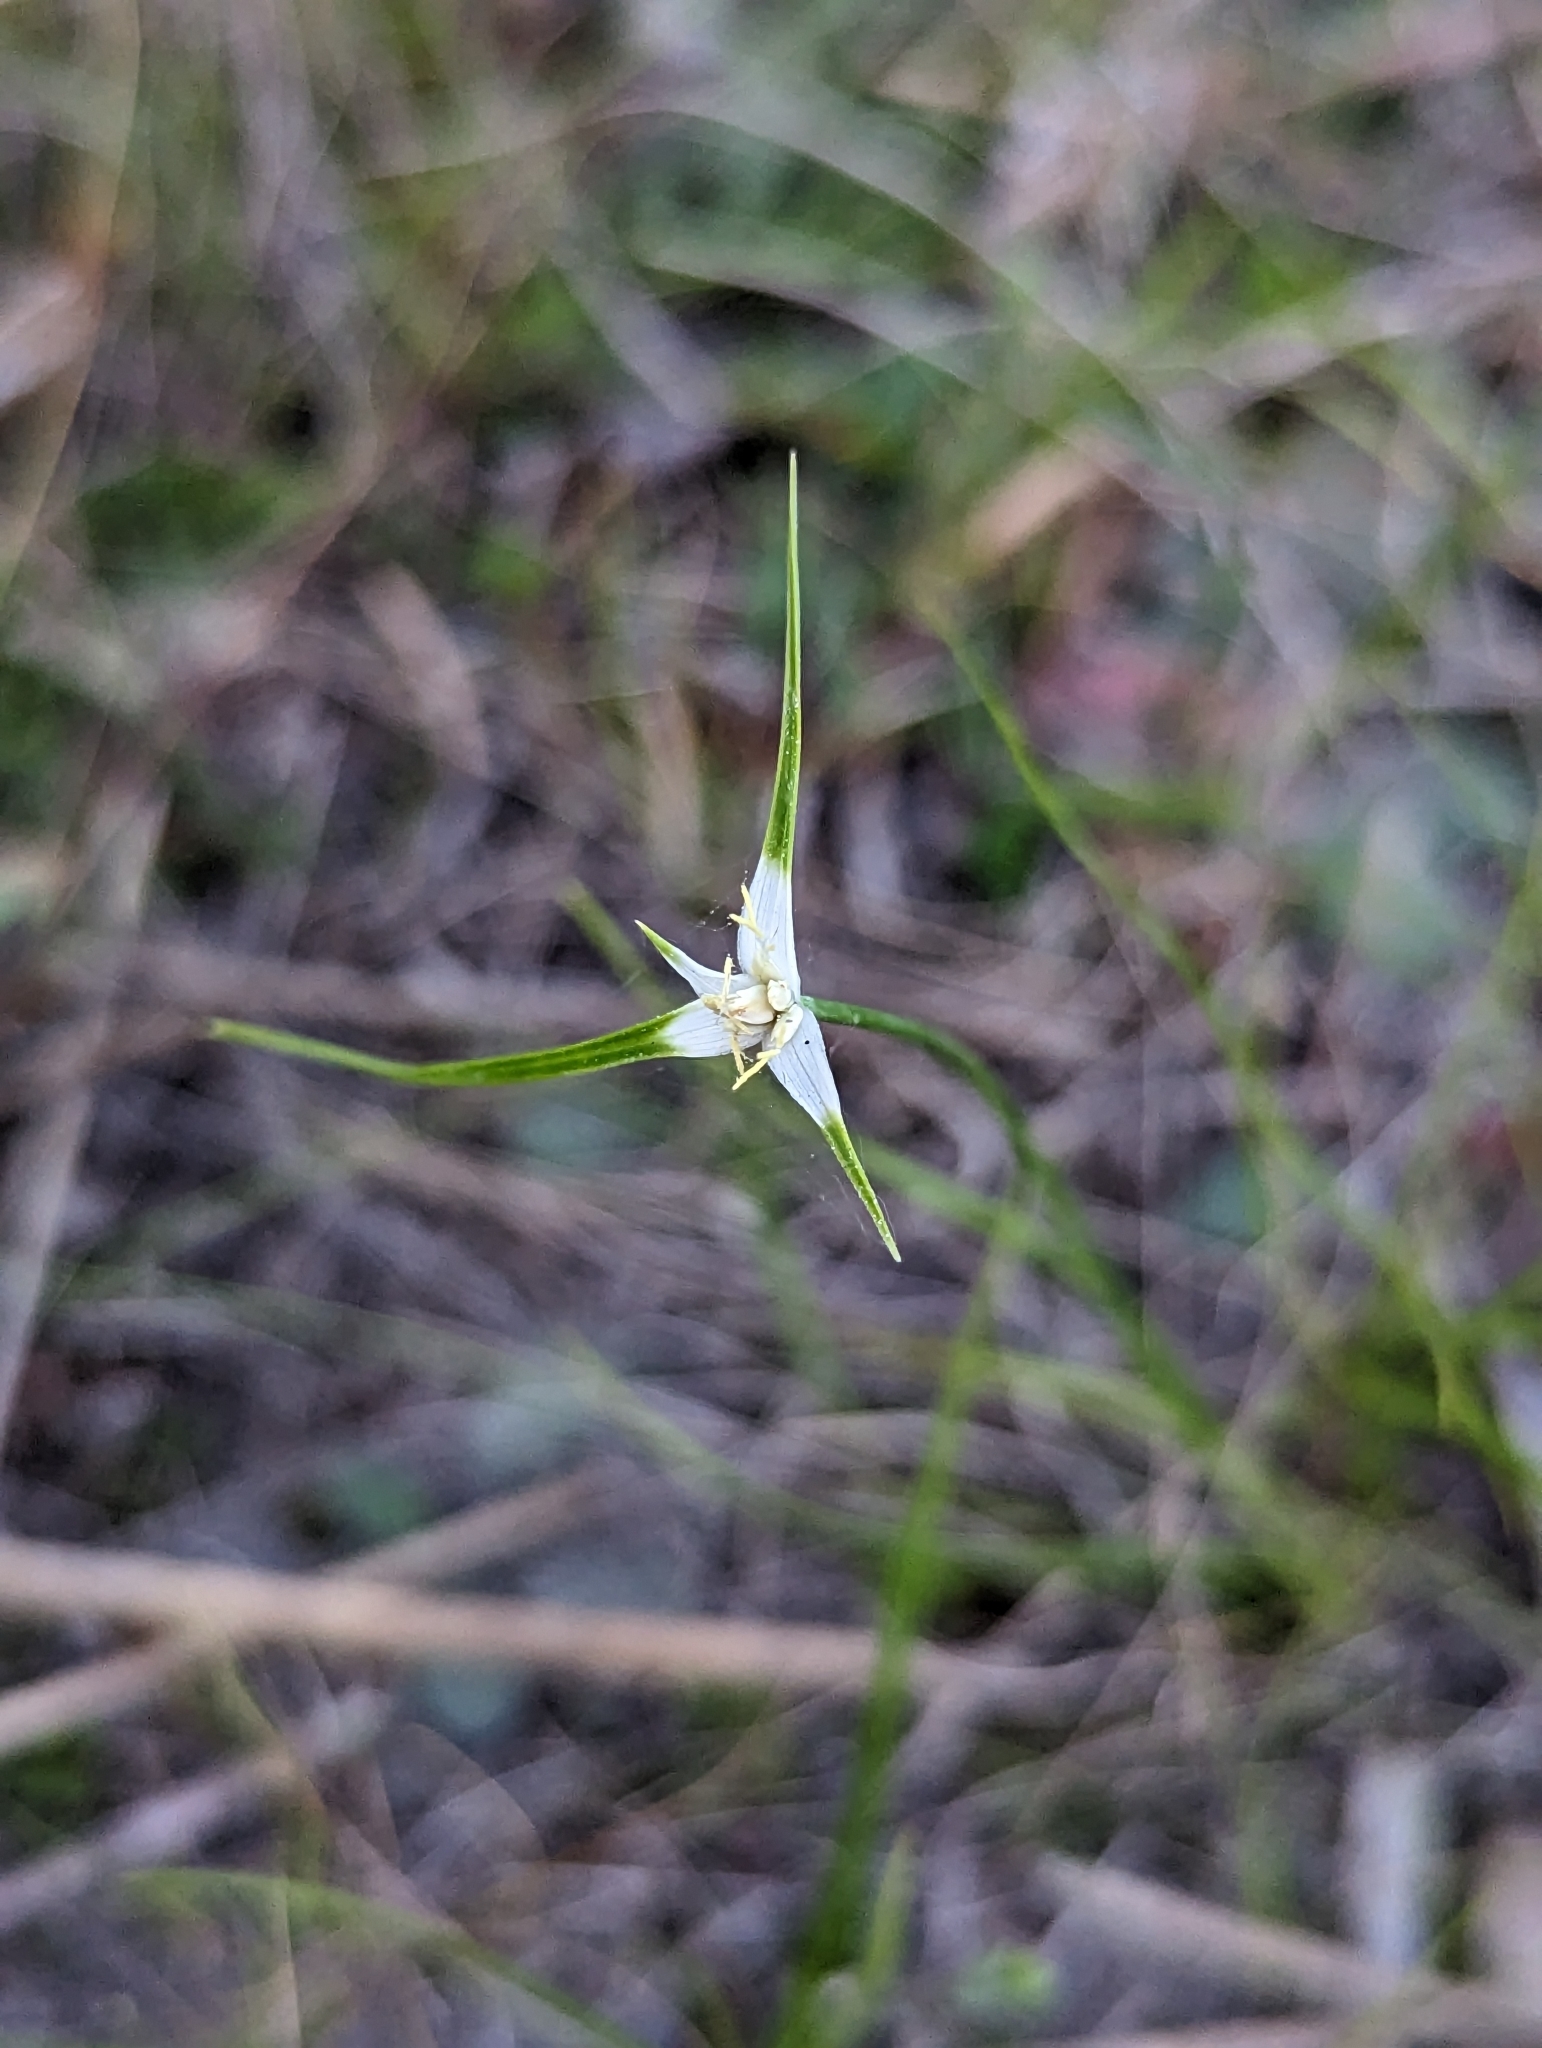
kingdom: Plantae
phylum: Tracheophyta
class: Liliopsida
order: Poales
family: Cyperaceae
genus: Rhynchospora
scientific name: Rhynchospora colorata
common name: Star sedge
